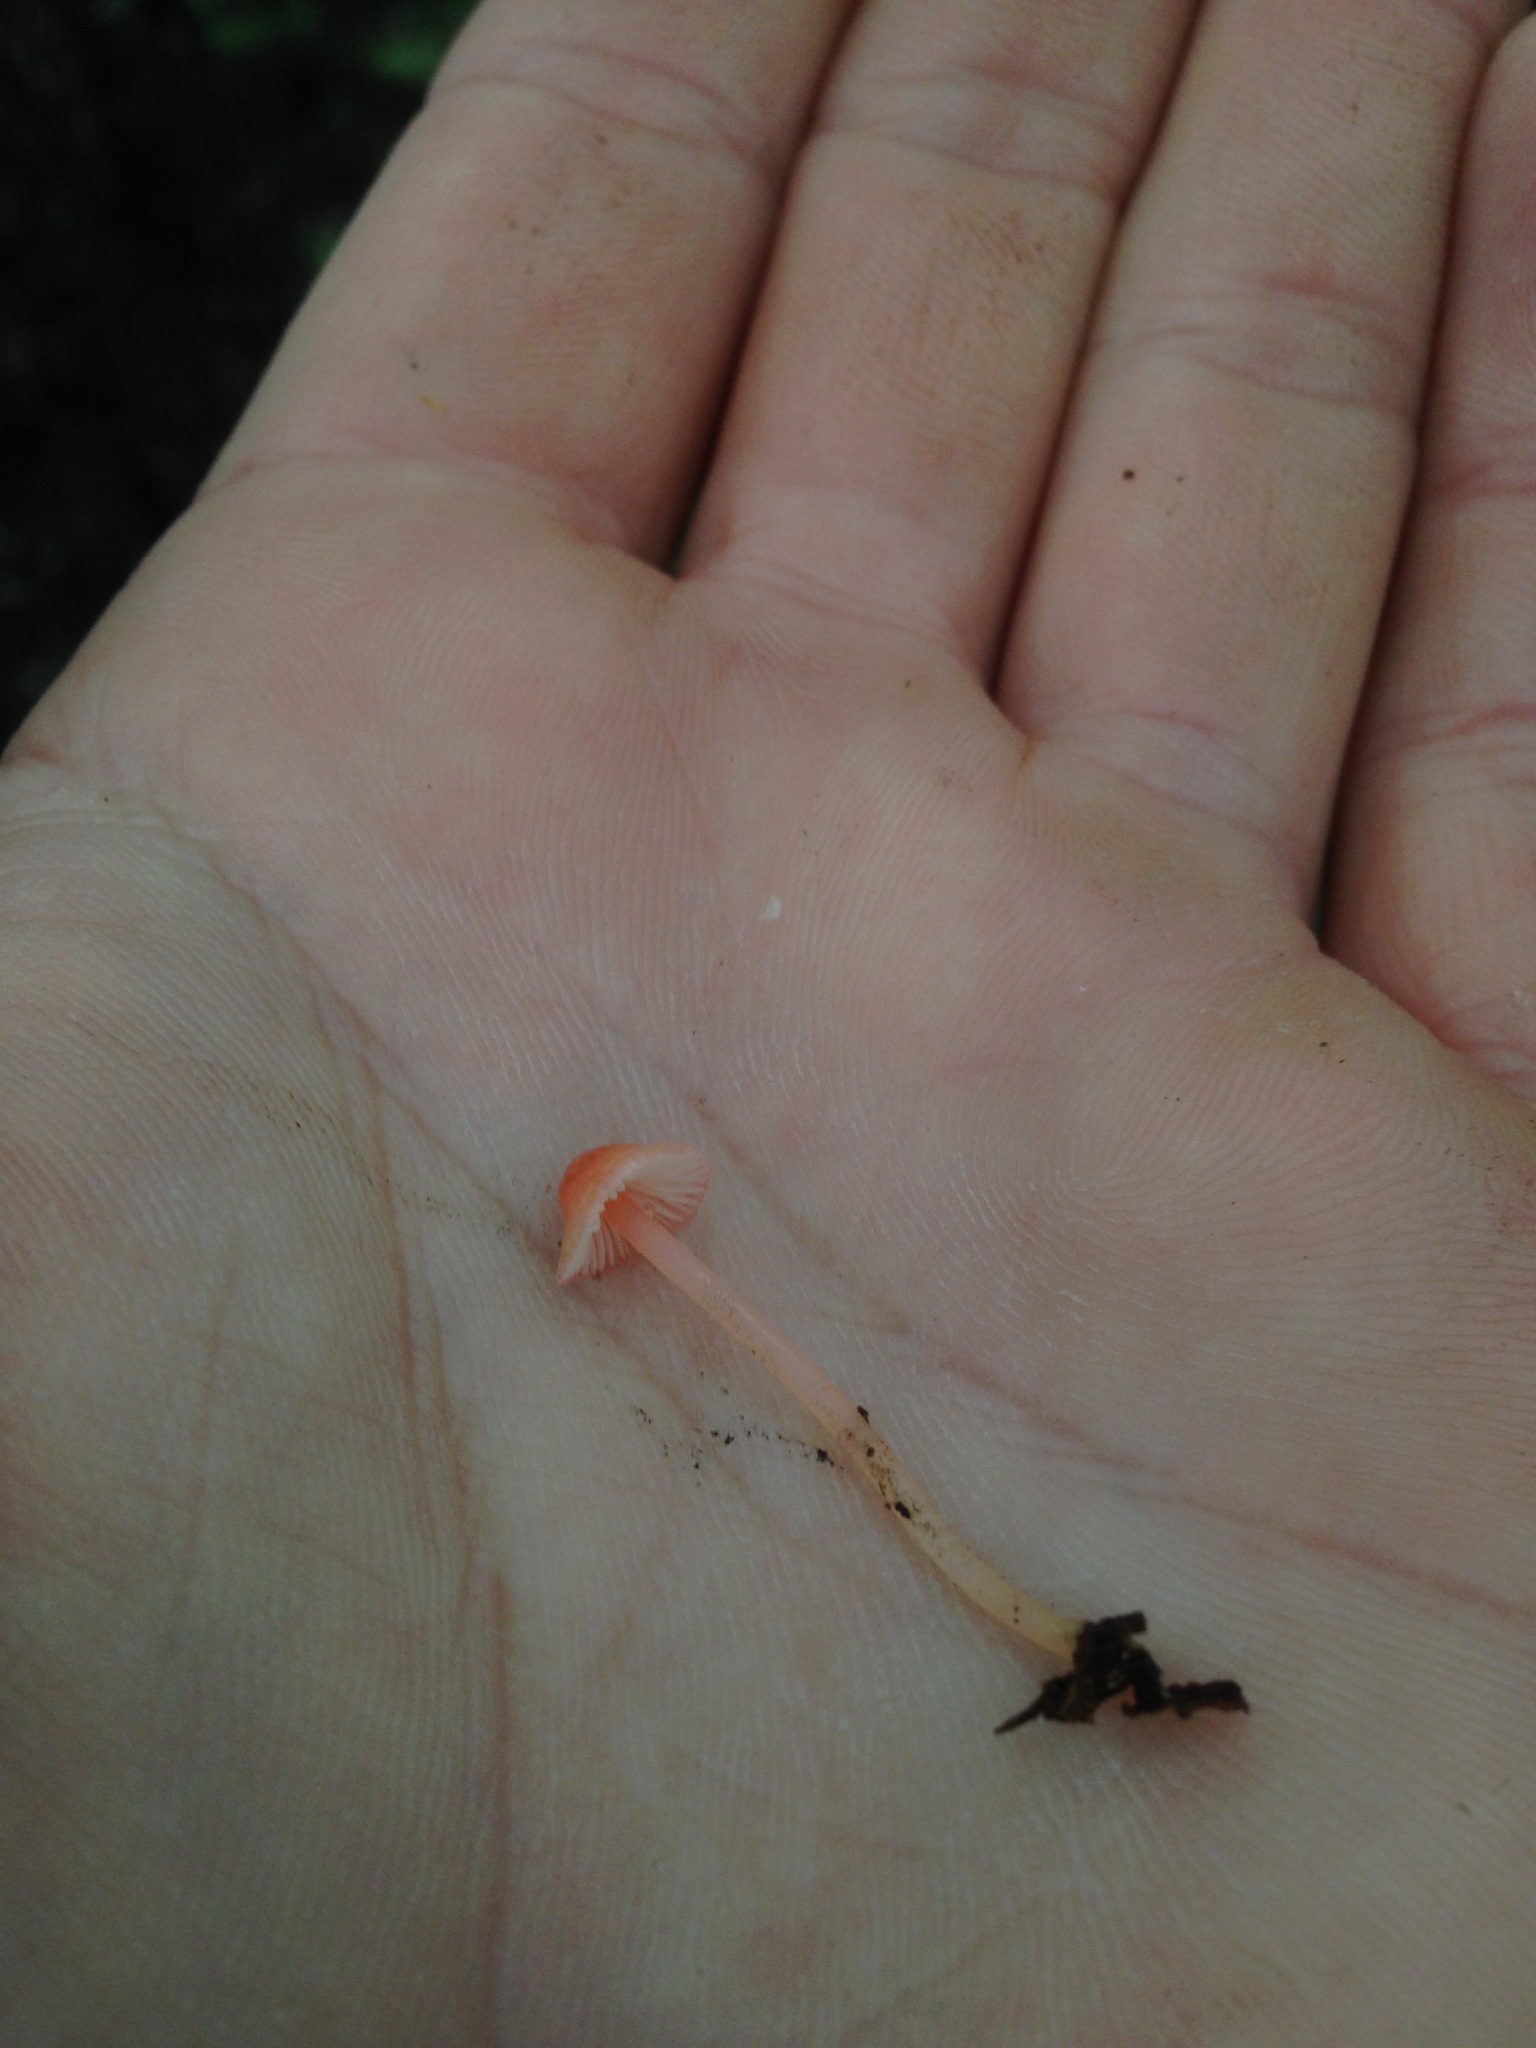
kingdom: Fungi
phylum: Basidiomycota
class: Agaricomycetes
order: Agaricales
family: Mycenaceae
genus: Atheniella
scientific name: Atheniella adonis
